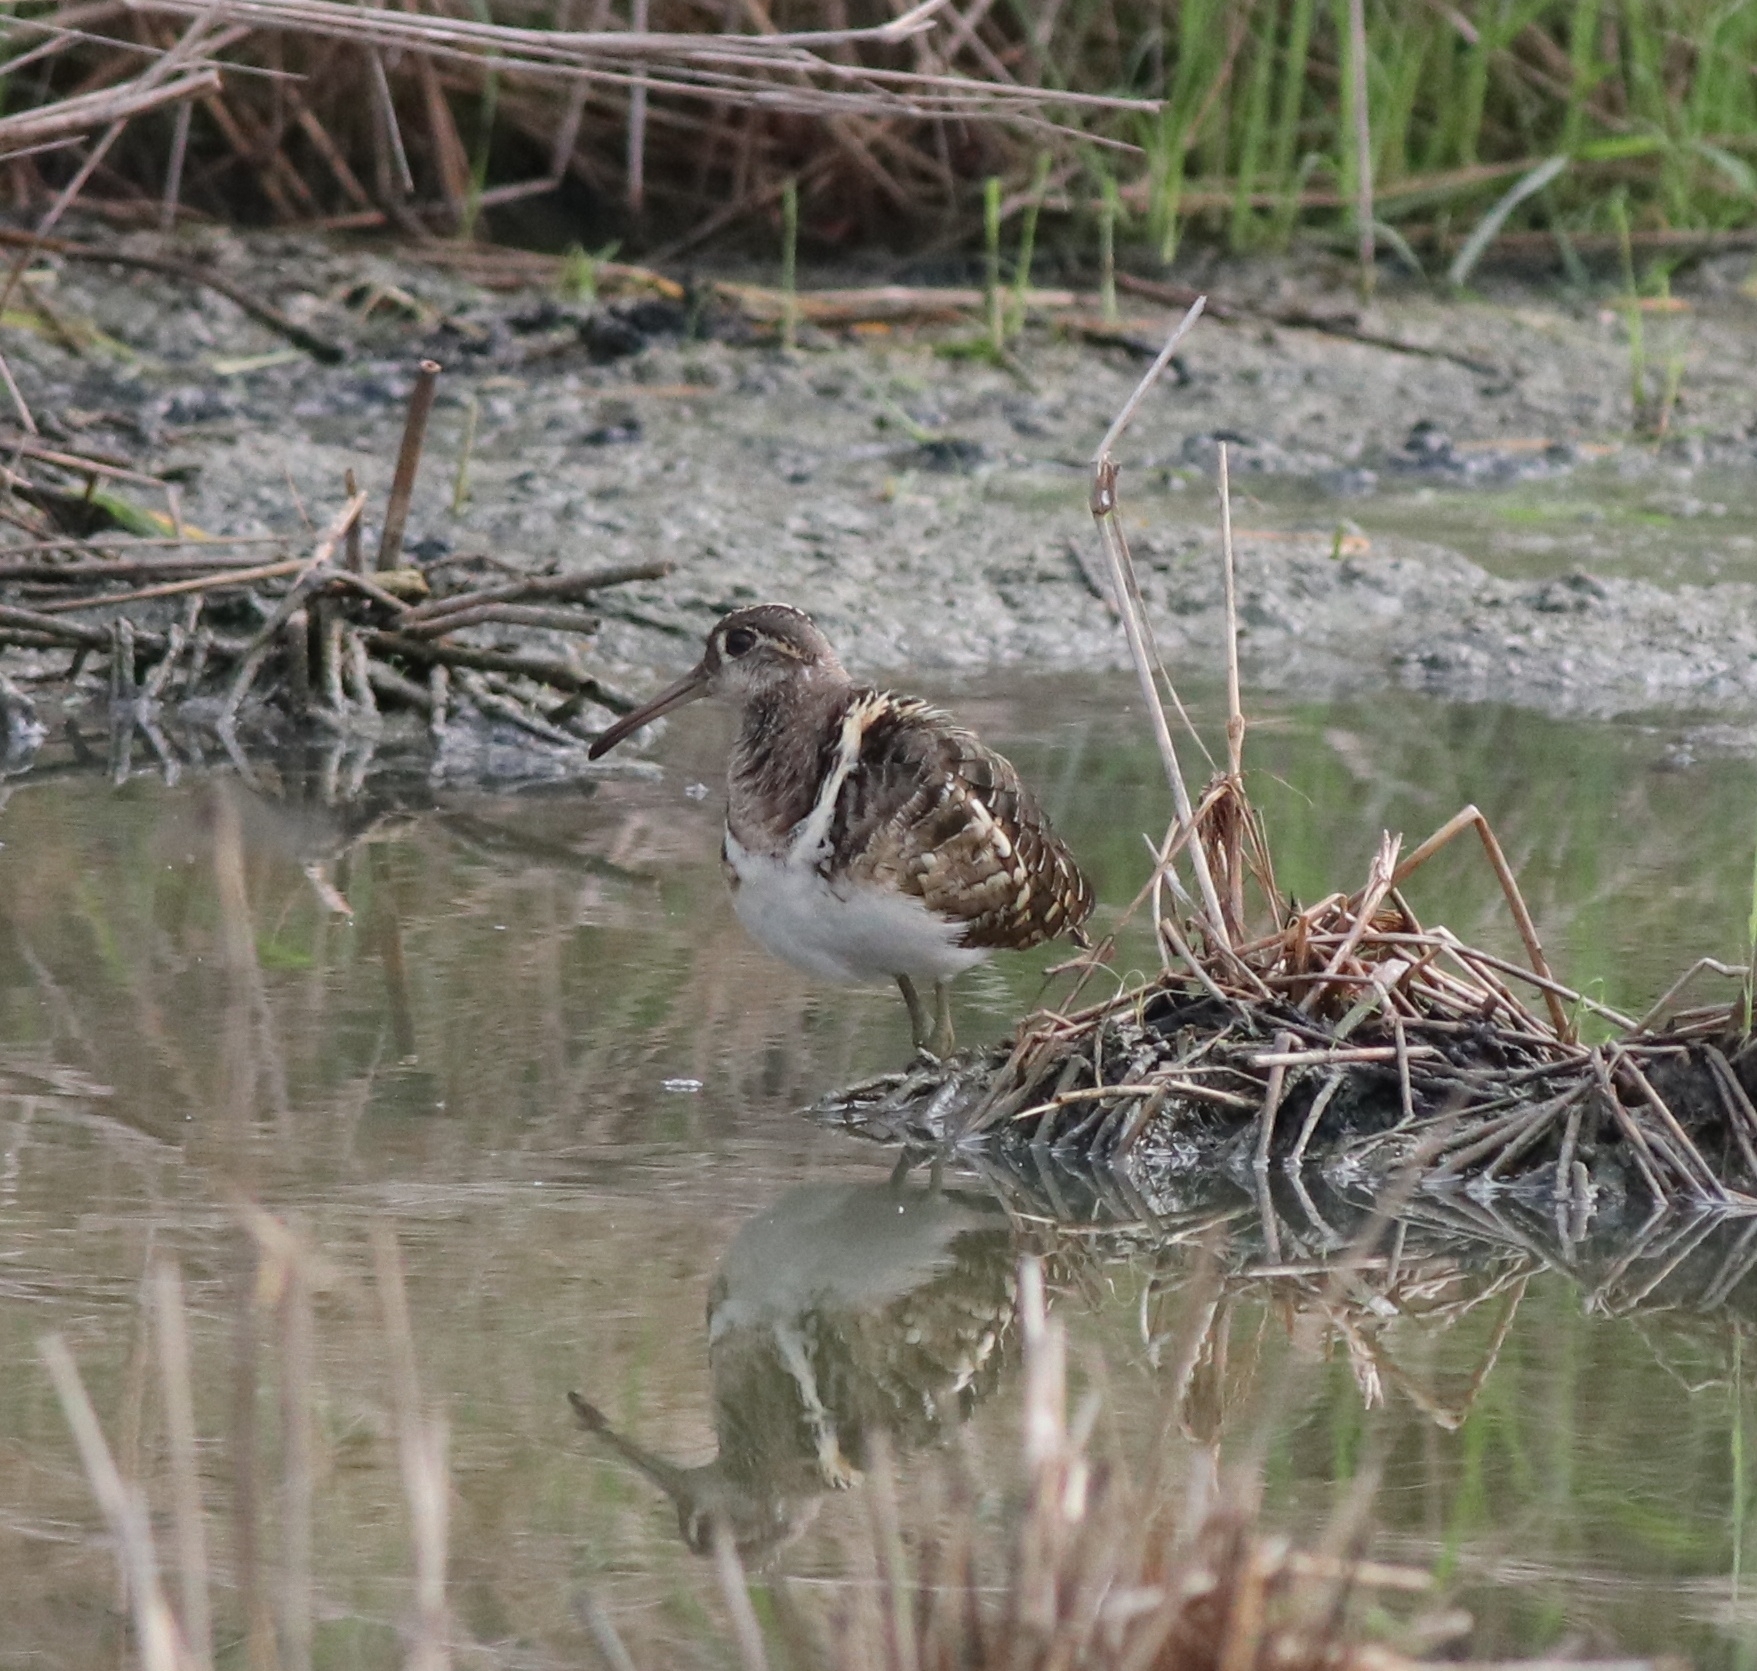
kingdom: Animalia
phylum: Chordata
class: Aves
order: Charadriiformes
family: Rostratulidae
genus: Rostratula
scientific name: Rostratula benghalensis
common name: Greater painted-snipe
